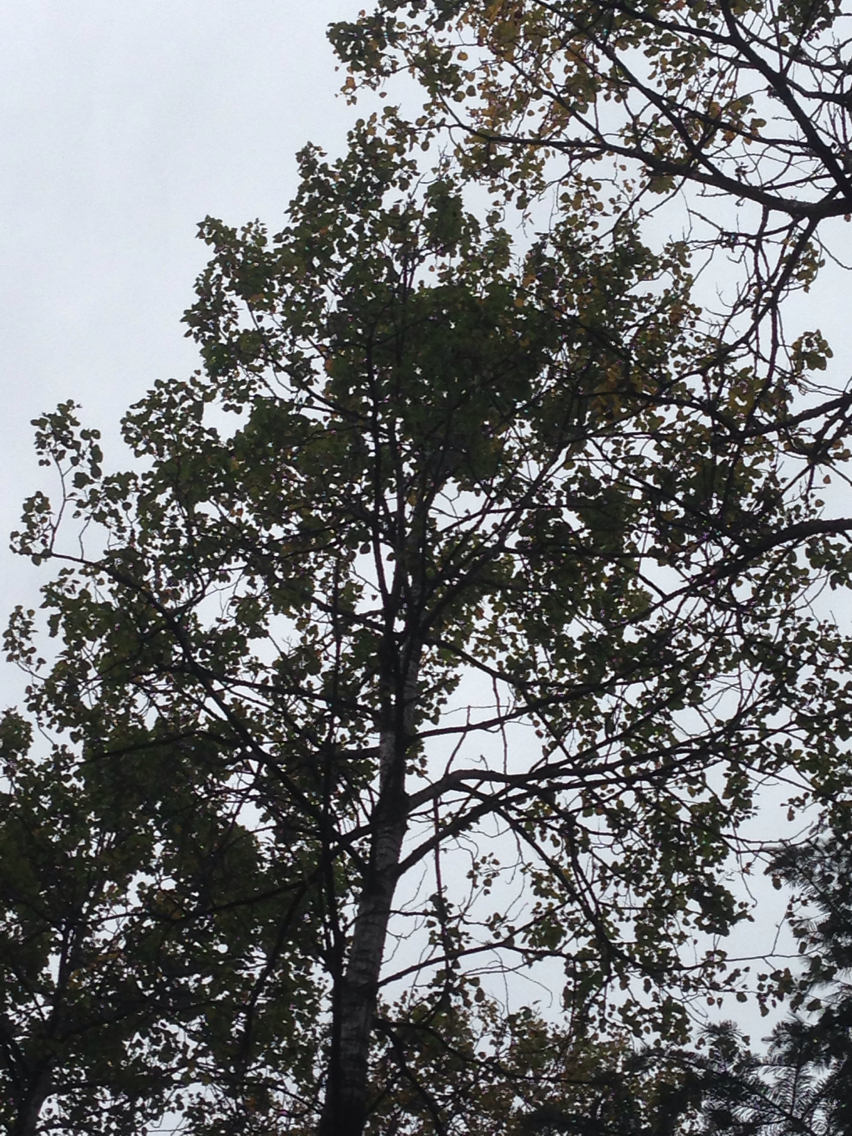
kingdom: Plantae
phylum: Tracheophyta
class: Magnoliopsida
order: Malpighiales
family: Salicaceae
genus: Populus
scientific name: Populus tremuloides
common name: Quaking aspen
